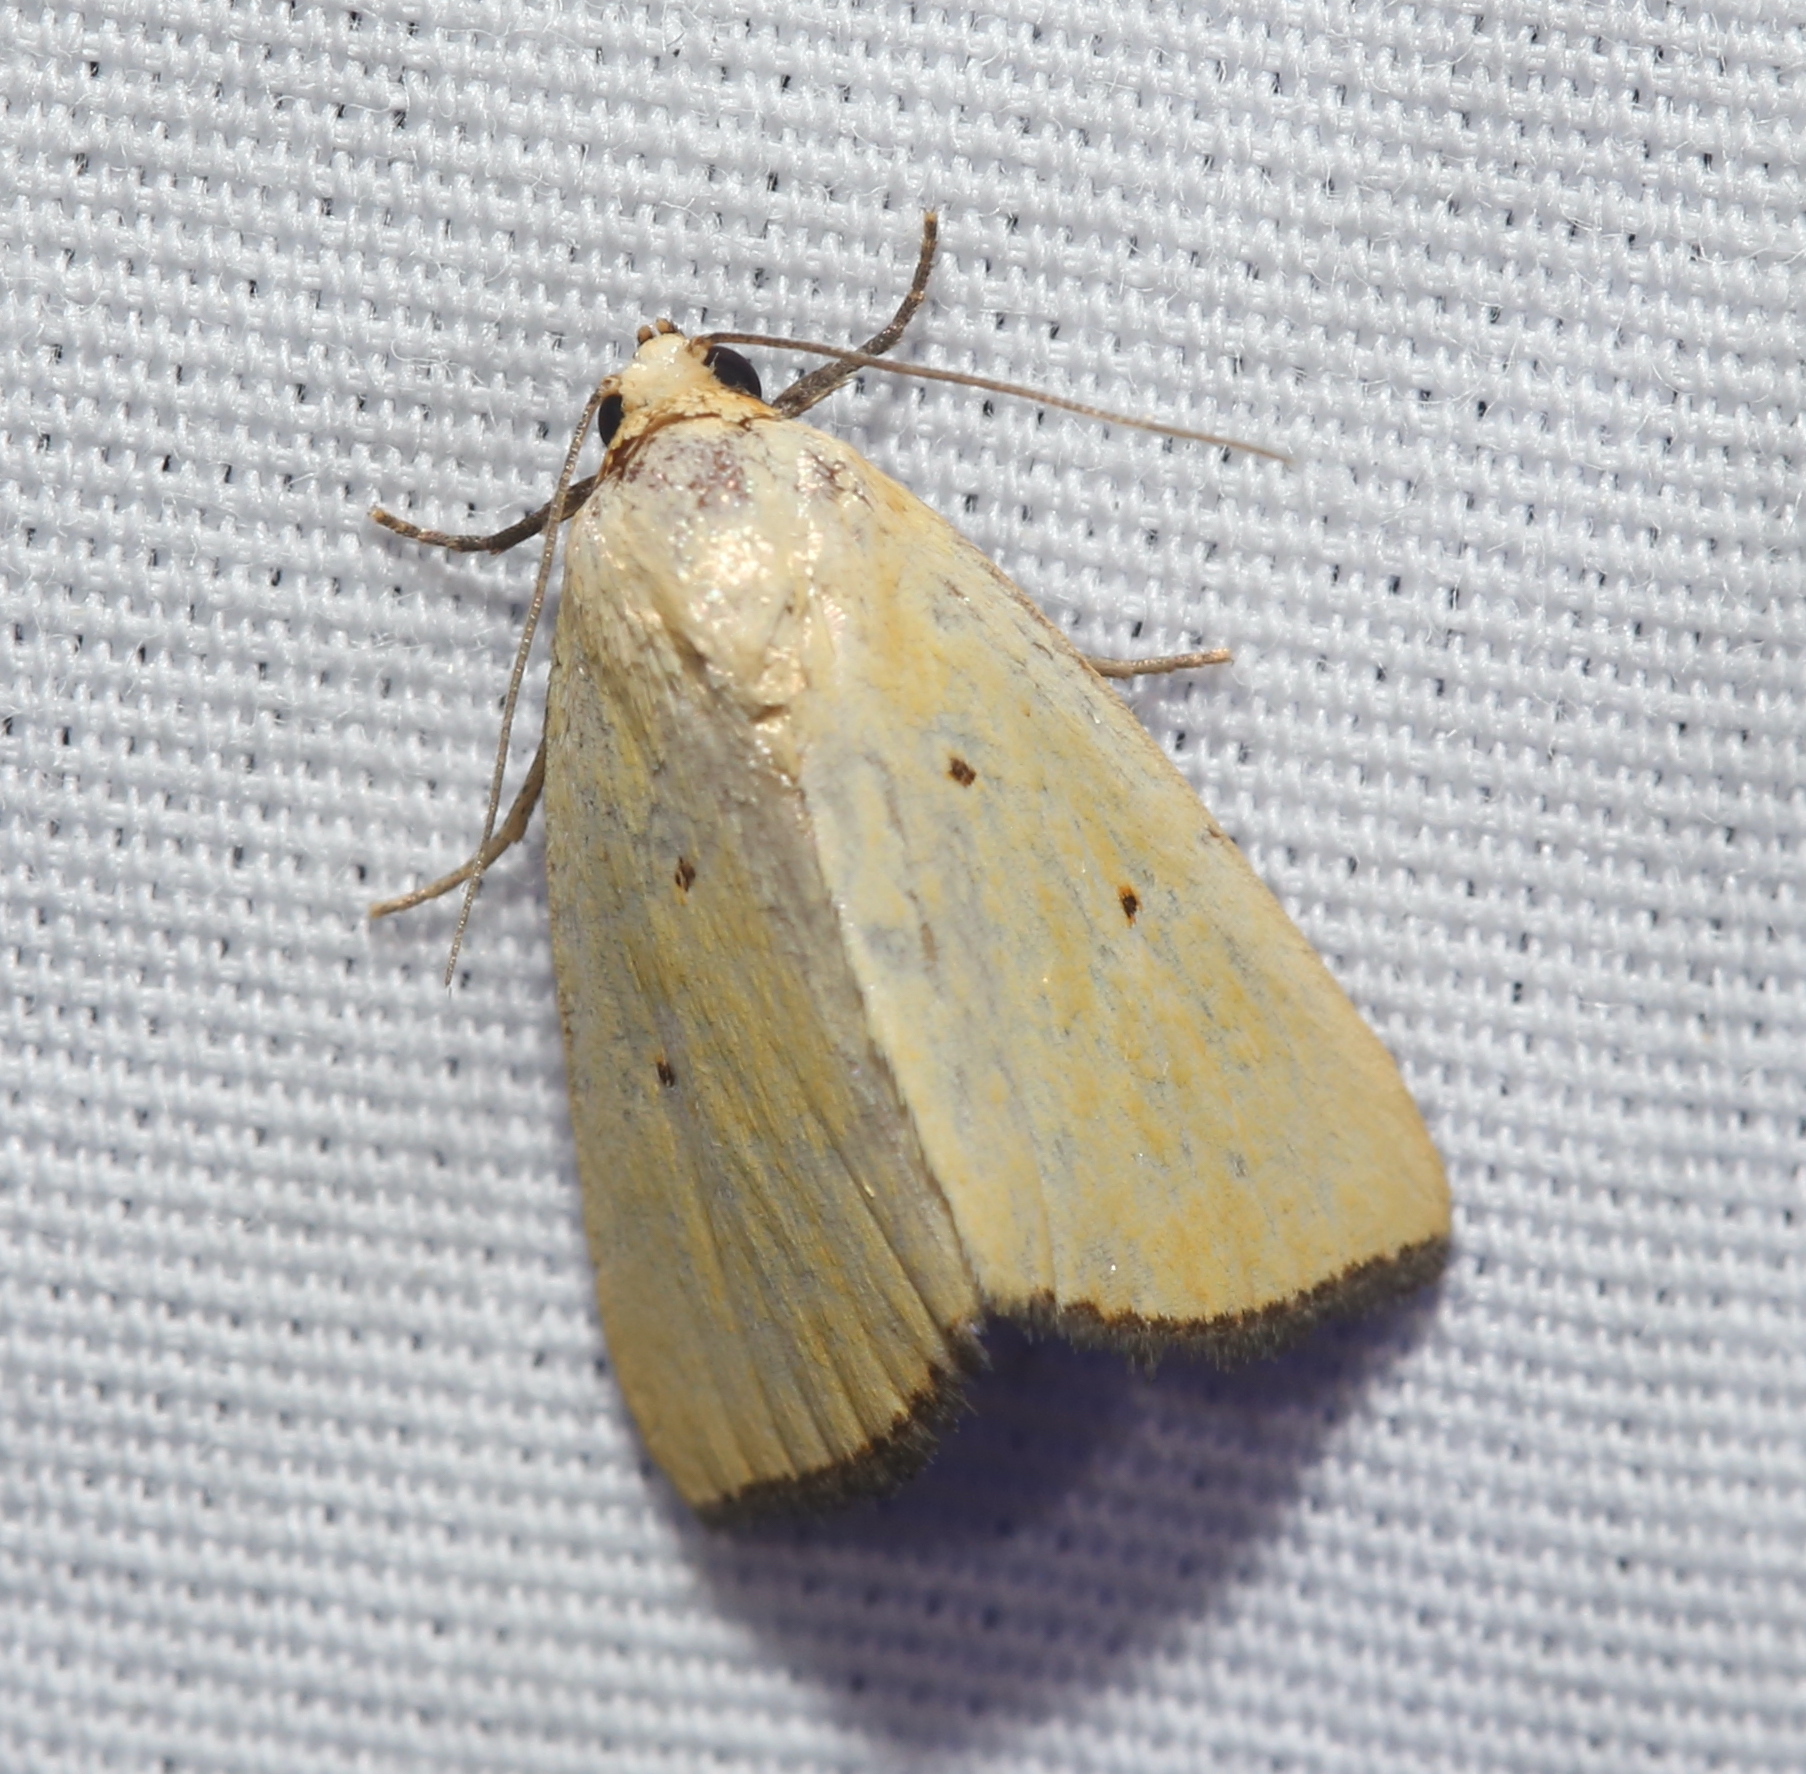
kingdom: Animalia
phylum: Arthropoda
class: Insecta
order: Lepidoptera
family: Noctuidae
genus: Marimatha
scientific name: Marimatha nigrofimbria
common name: Black-bordered lemon moth
